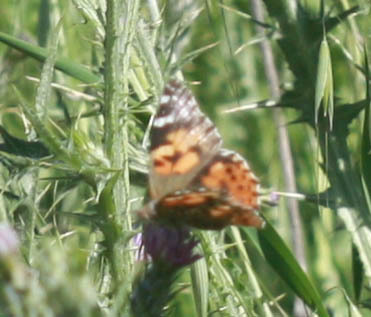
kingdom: Animalia
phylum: Arthropoda
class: Insecta
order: Lepidoptera
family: Nymphalidae
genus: Vanessa
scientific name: Vanessa cardui
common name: Painted lady
